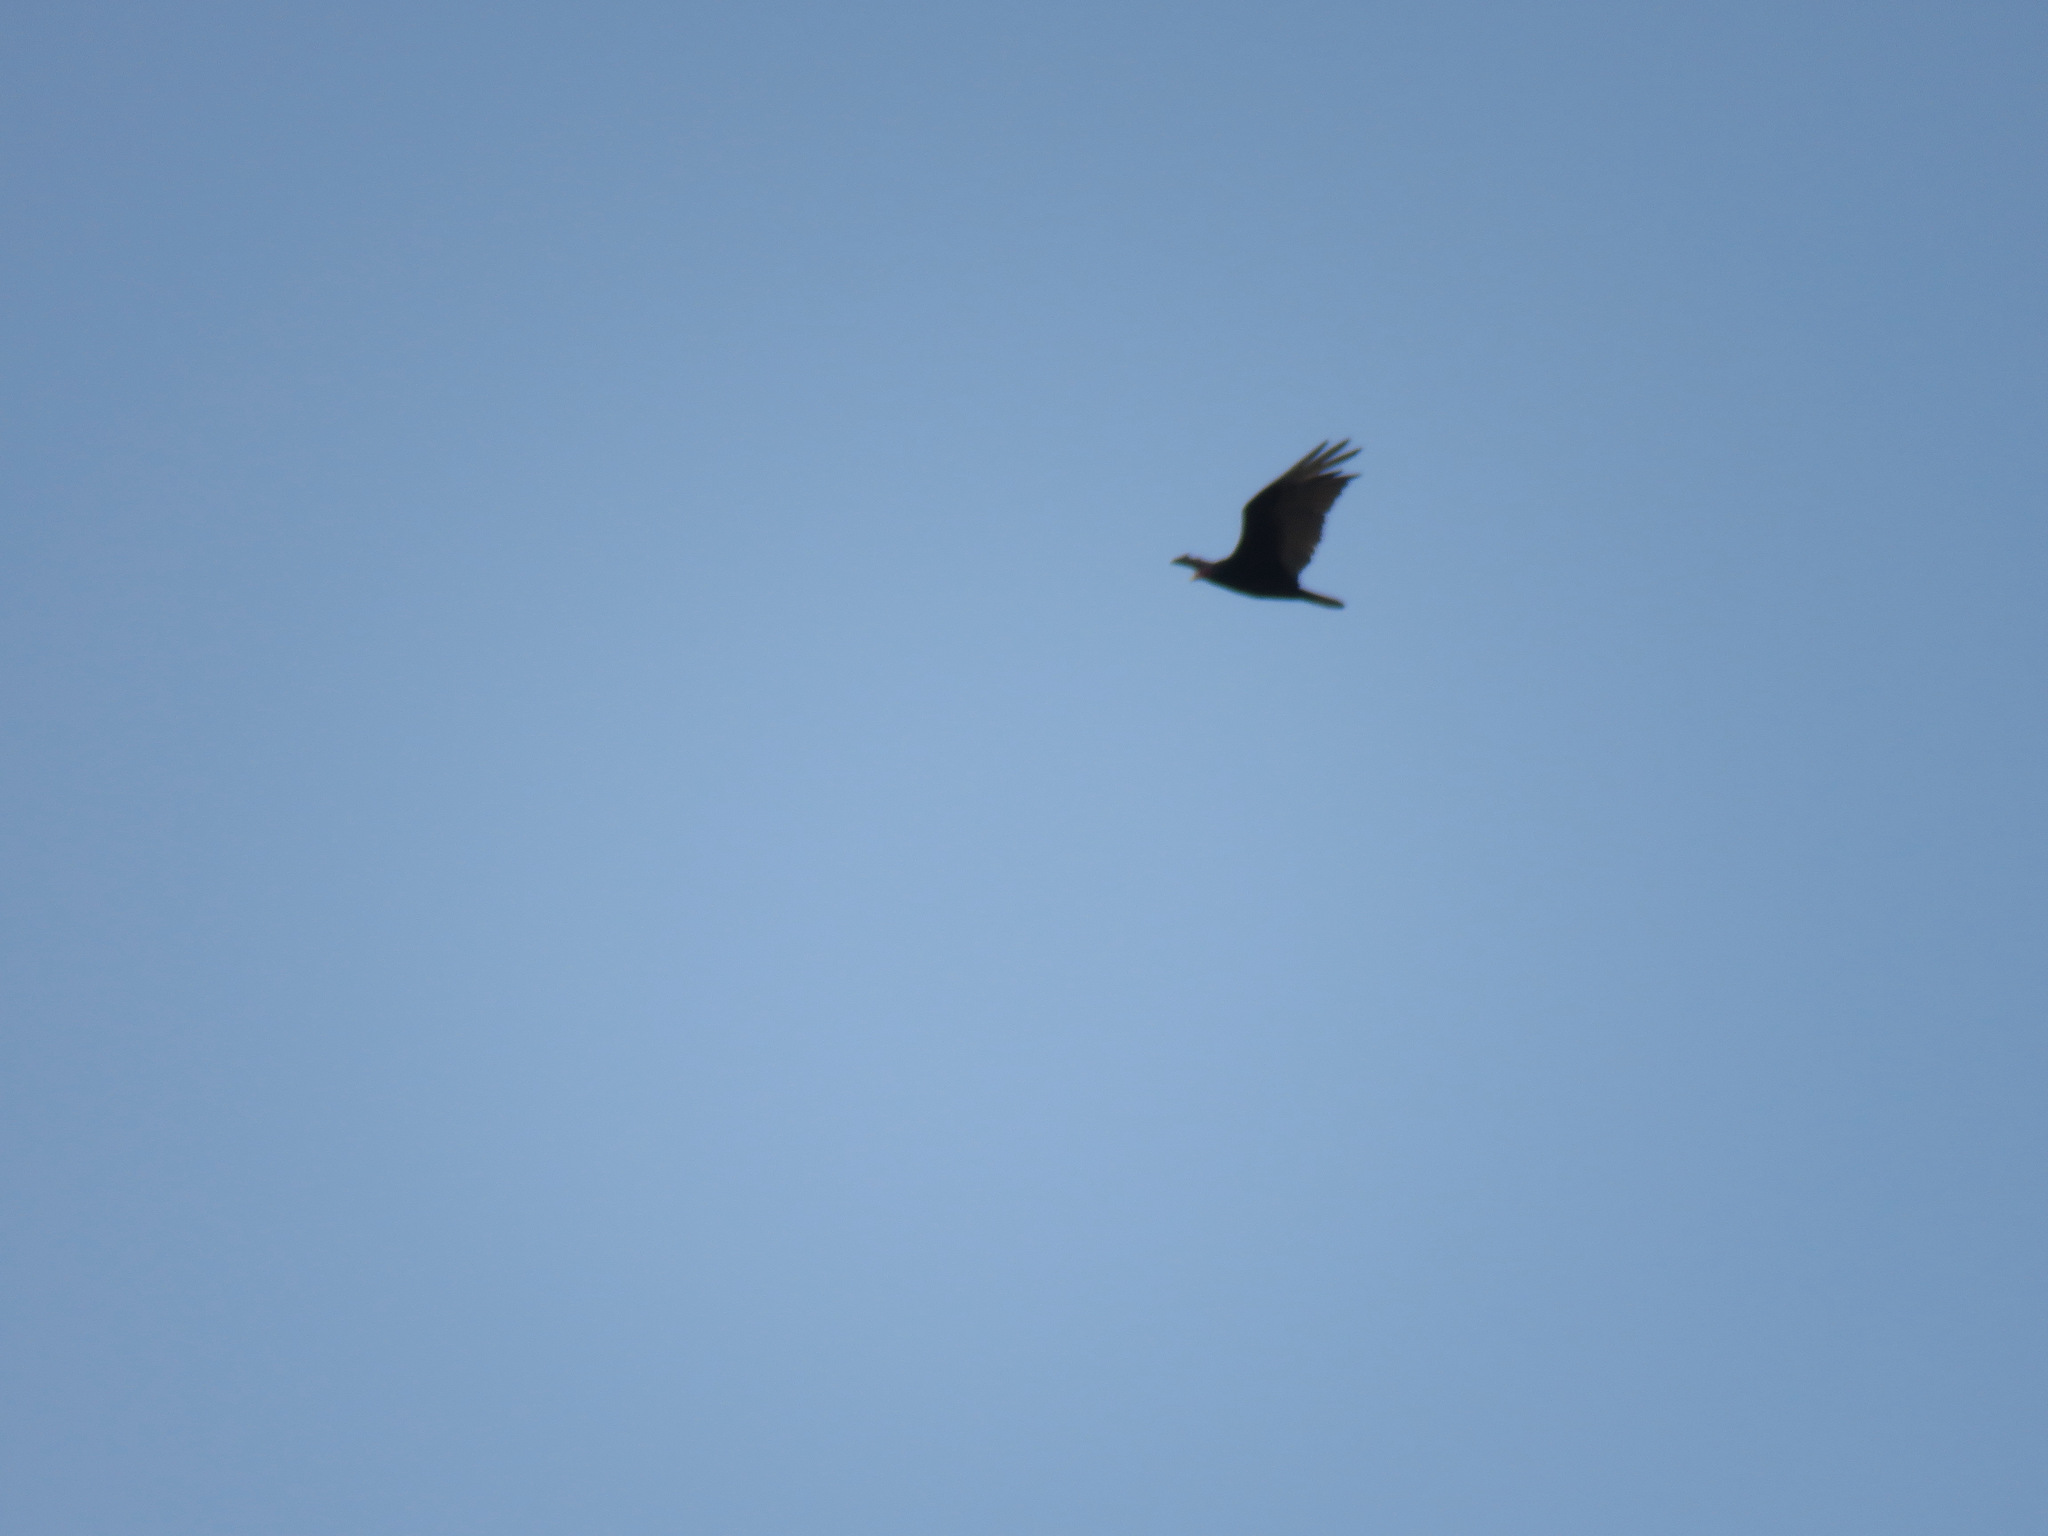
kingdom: Animalia
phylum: Chordata
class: Aves
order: Accipitriformes
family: Cathartidae
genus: Cathartes
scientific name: Cathartes aura
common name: Turkey vulture
